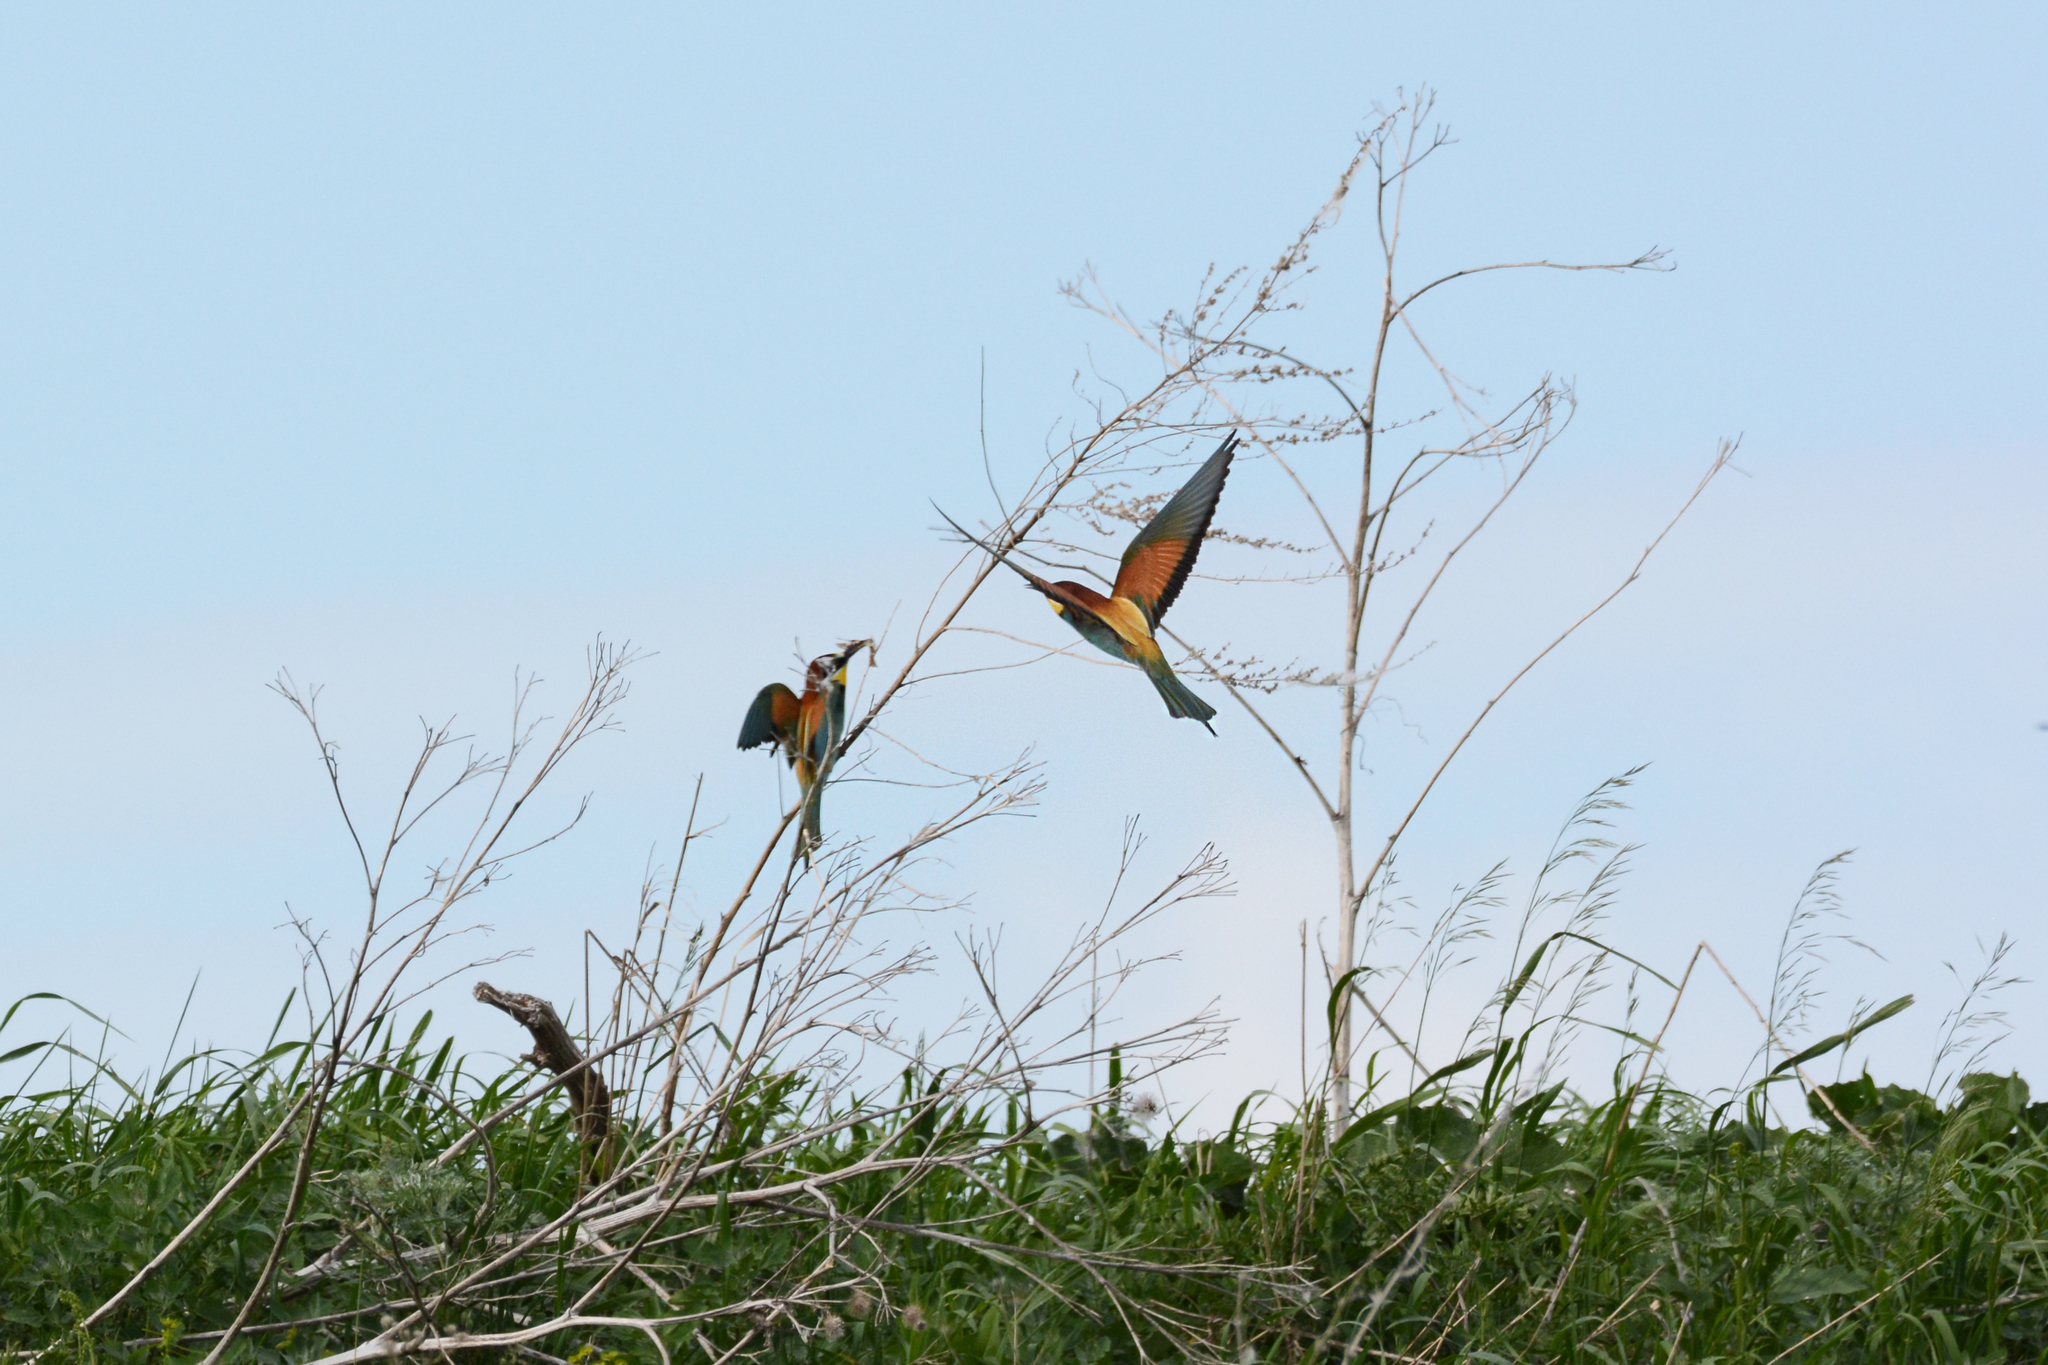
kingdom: Animalia
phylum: Chordata
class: Aves
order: Coraciiformes
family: Meropidae
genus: Merops
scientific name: Merops apiaster
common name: European bee-eater
